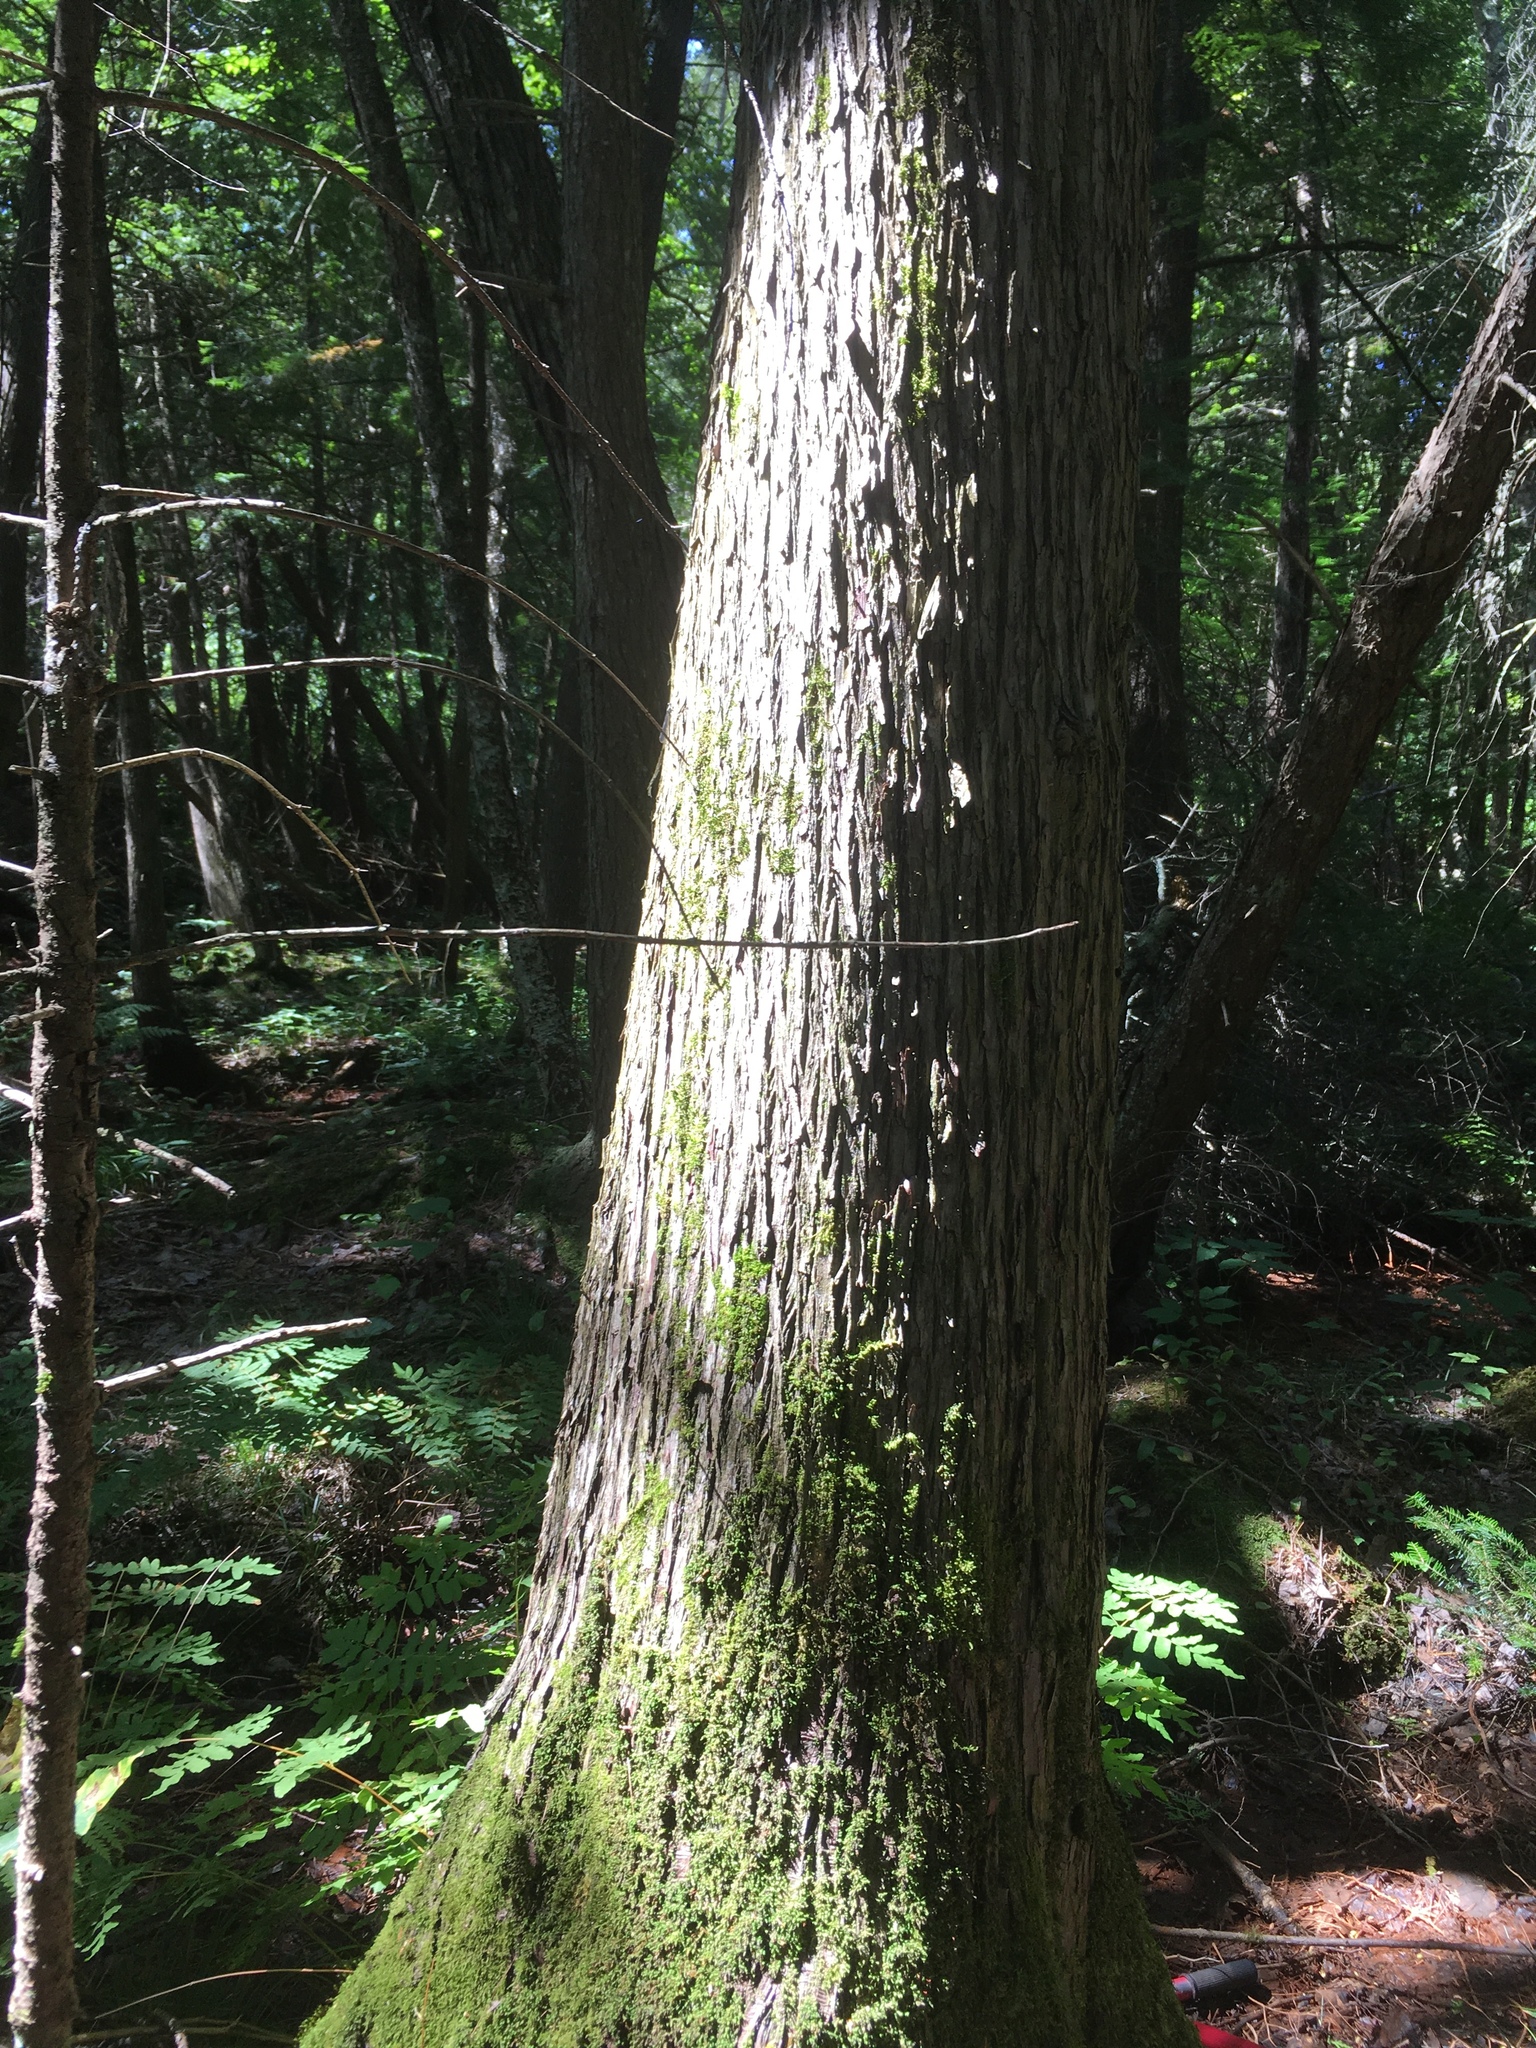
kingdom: Plantae
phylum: Tracheophyta
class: Pinopsida
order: Pinales
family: Cupressaceae
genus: Thuja
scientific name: Thuja occidentalis
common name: Northern white-cedar
